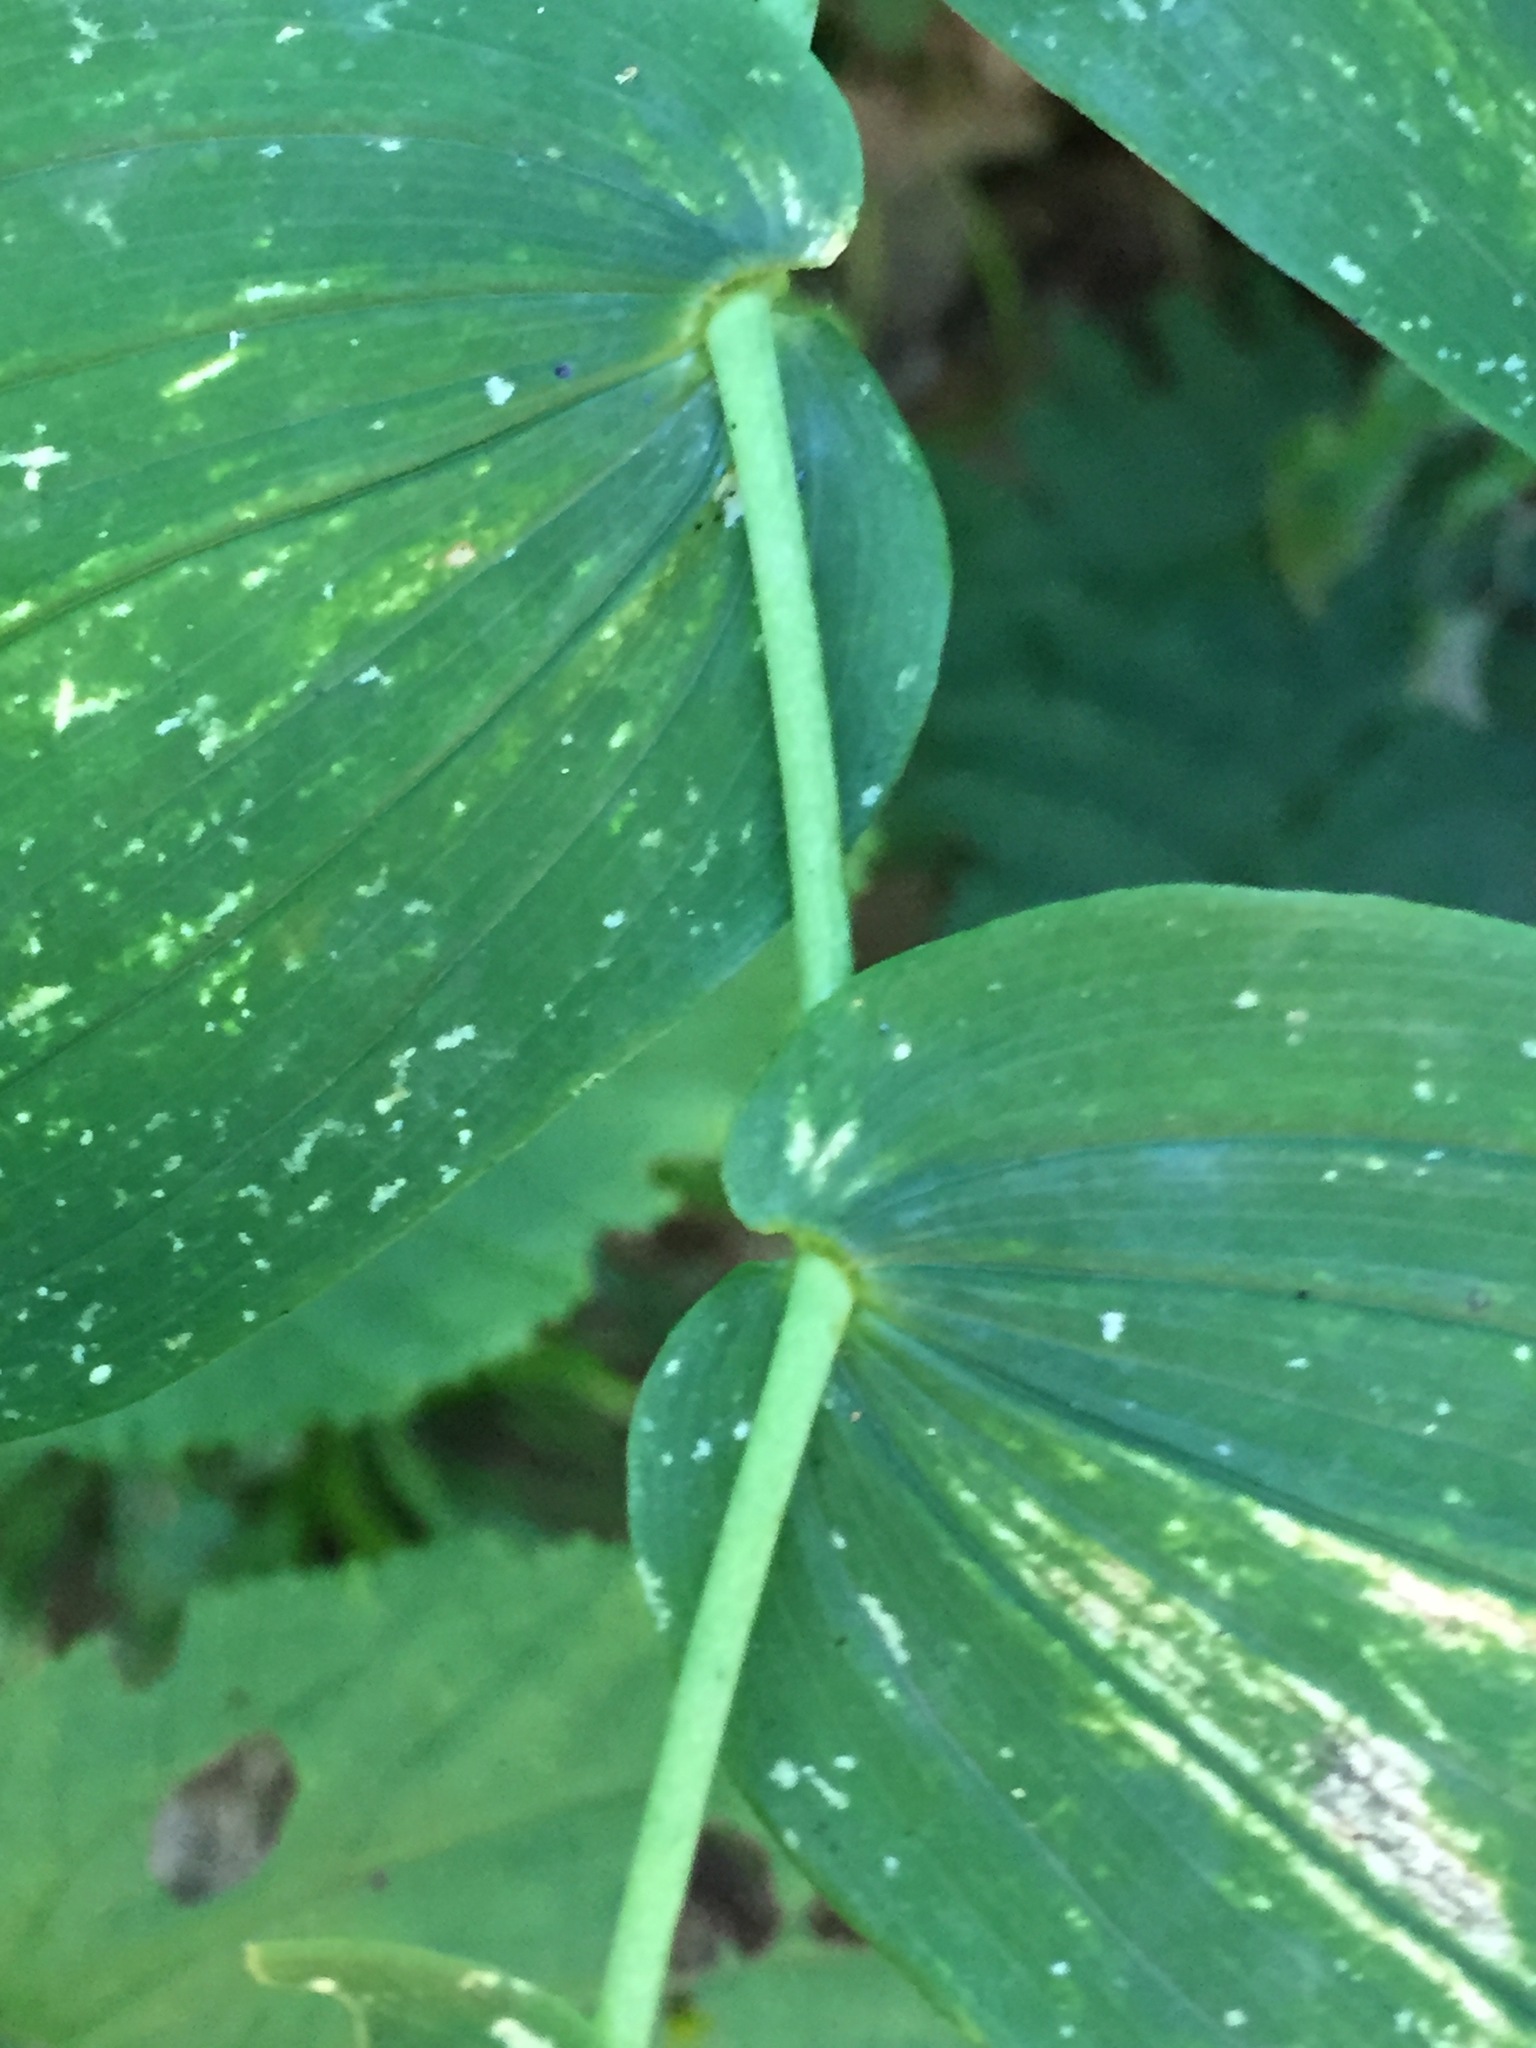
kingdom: Plantae
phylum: Tracheophyta
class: Liliopsida
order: Liliales
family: Liliaceae
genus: Streptopus
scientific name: Streptopus amplexifolius
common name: Clasp twisted stalk
